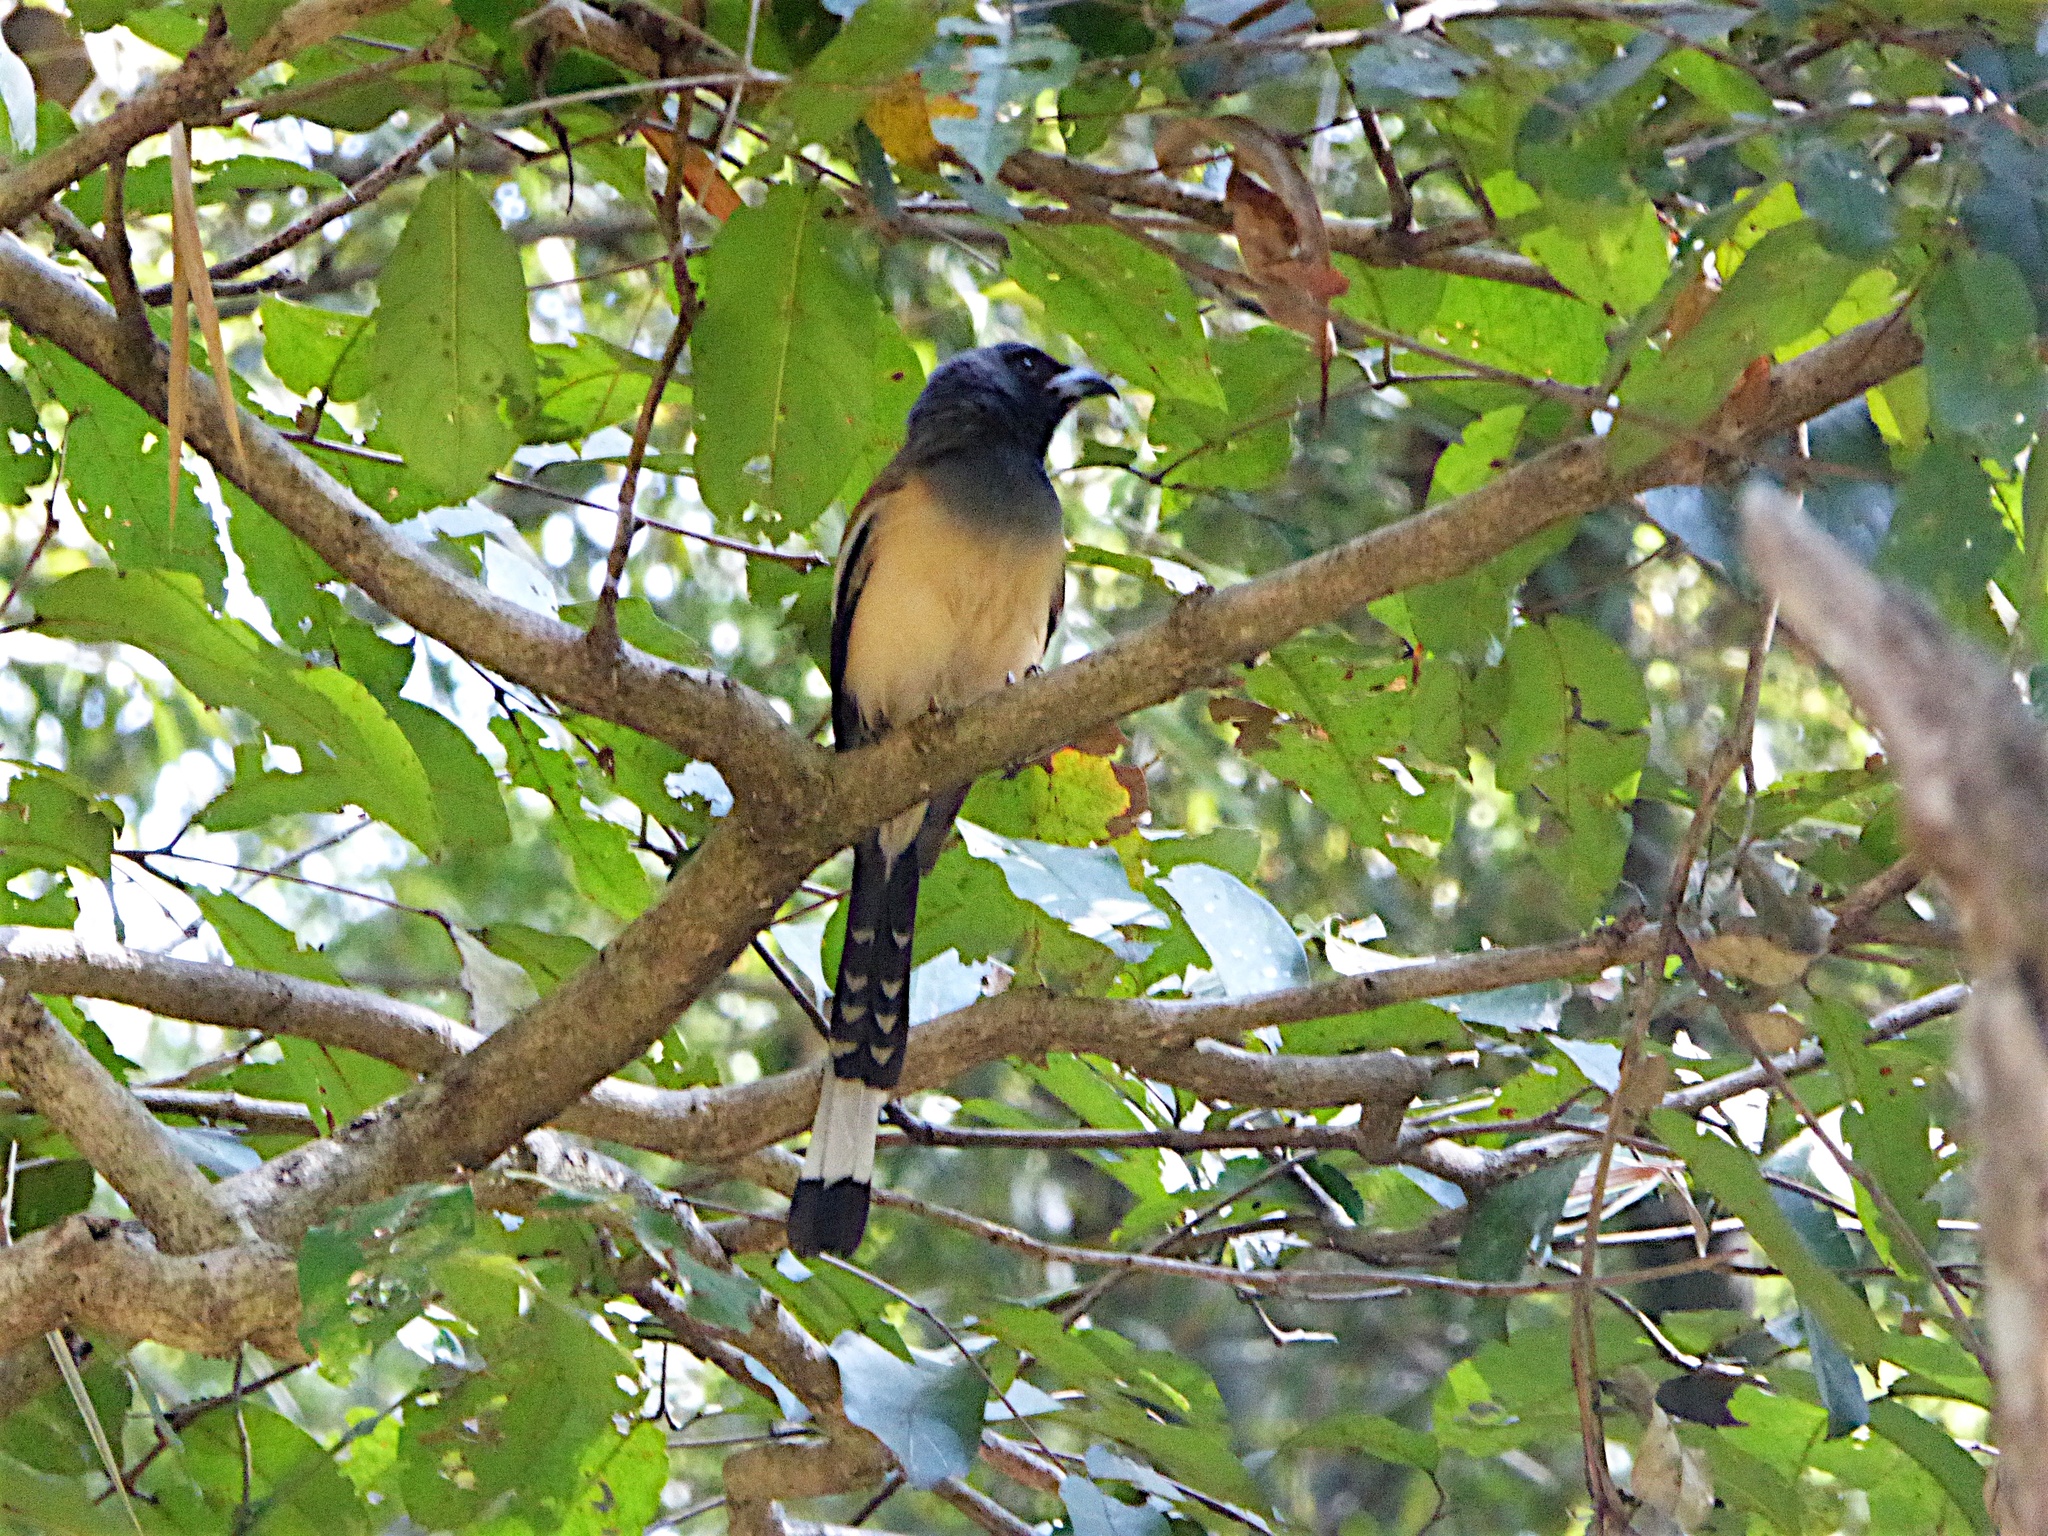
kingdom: Animalia
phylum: Chordata
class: Aves
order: Passeriformes
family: Corvidae
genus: Dendrocitta
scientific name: Dendrocitta vagabunda
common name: Rufous treepie
